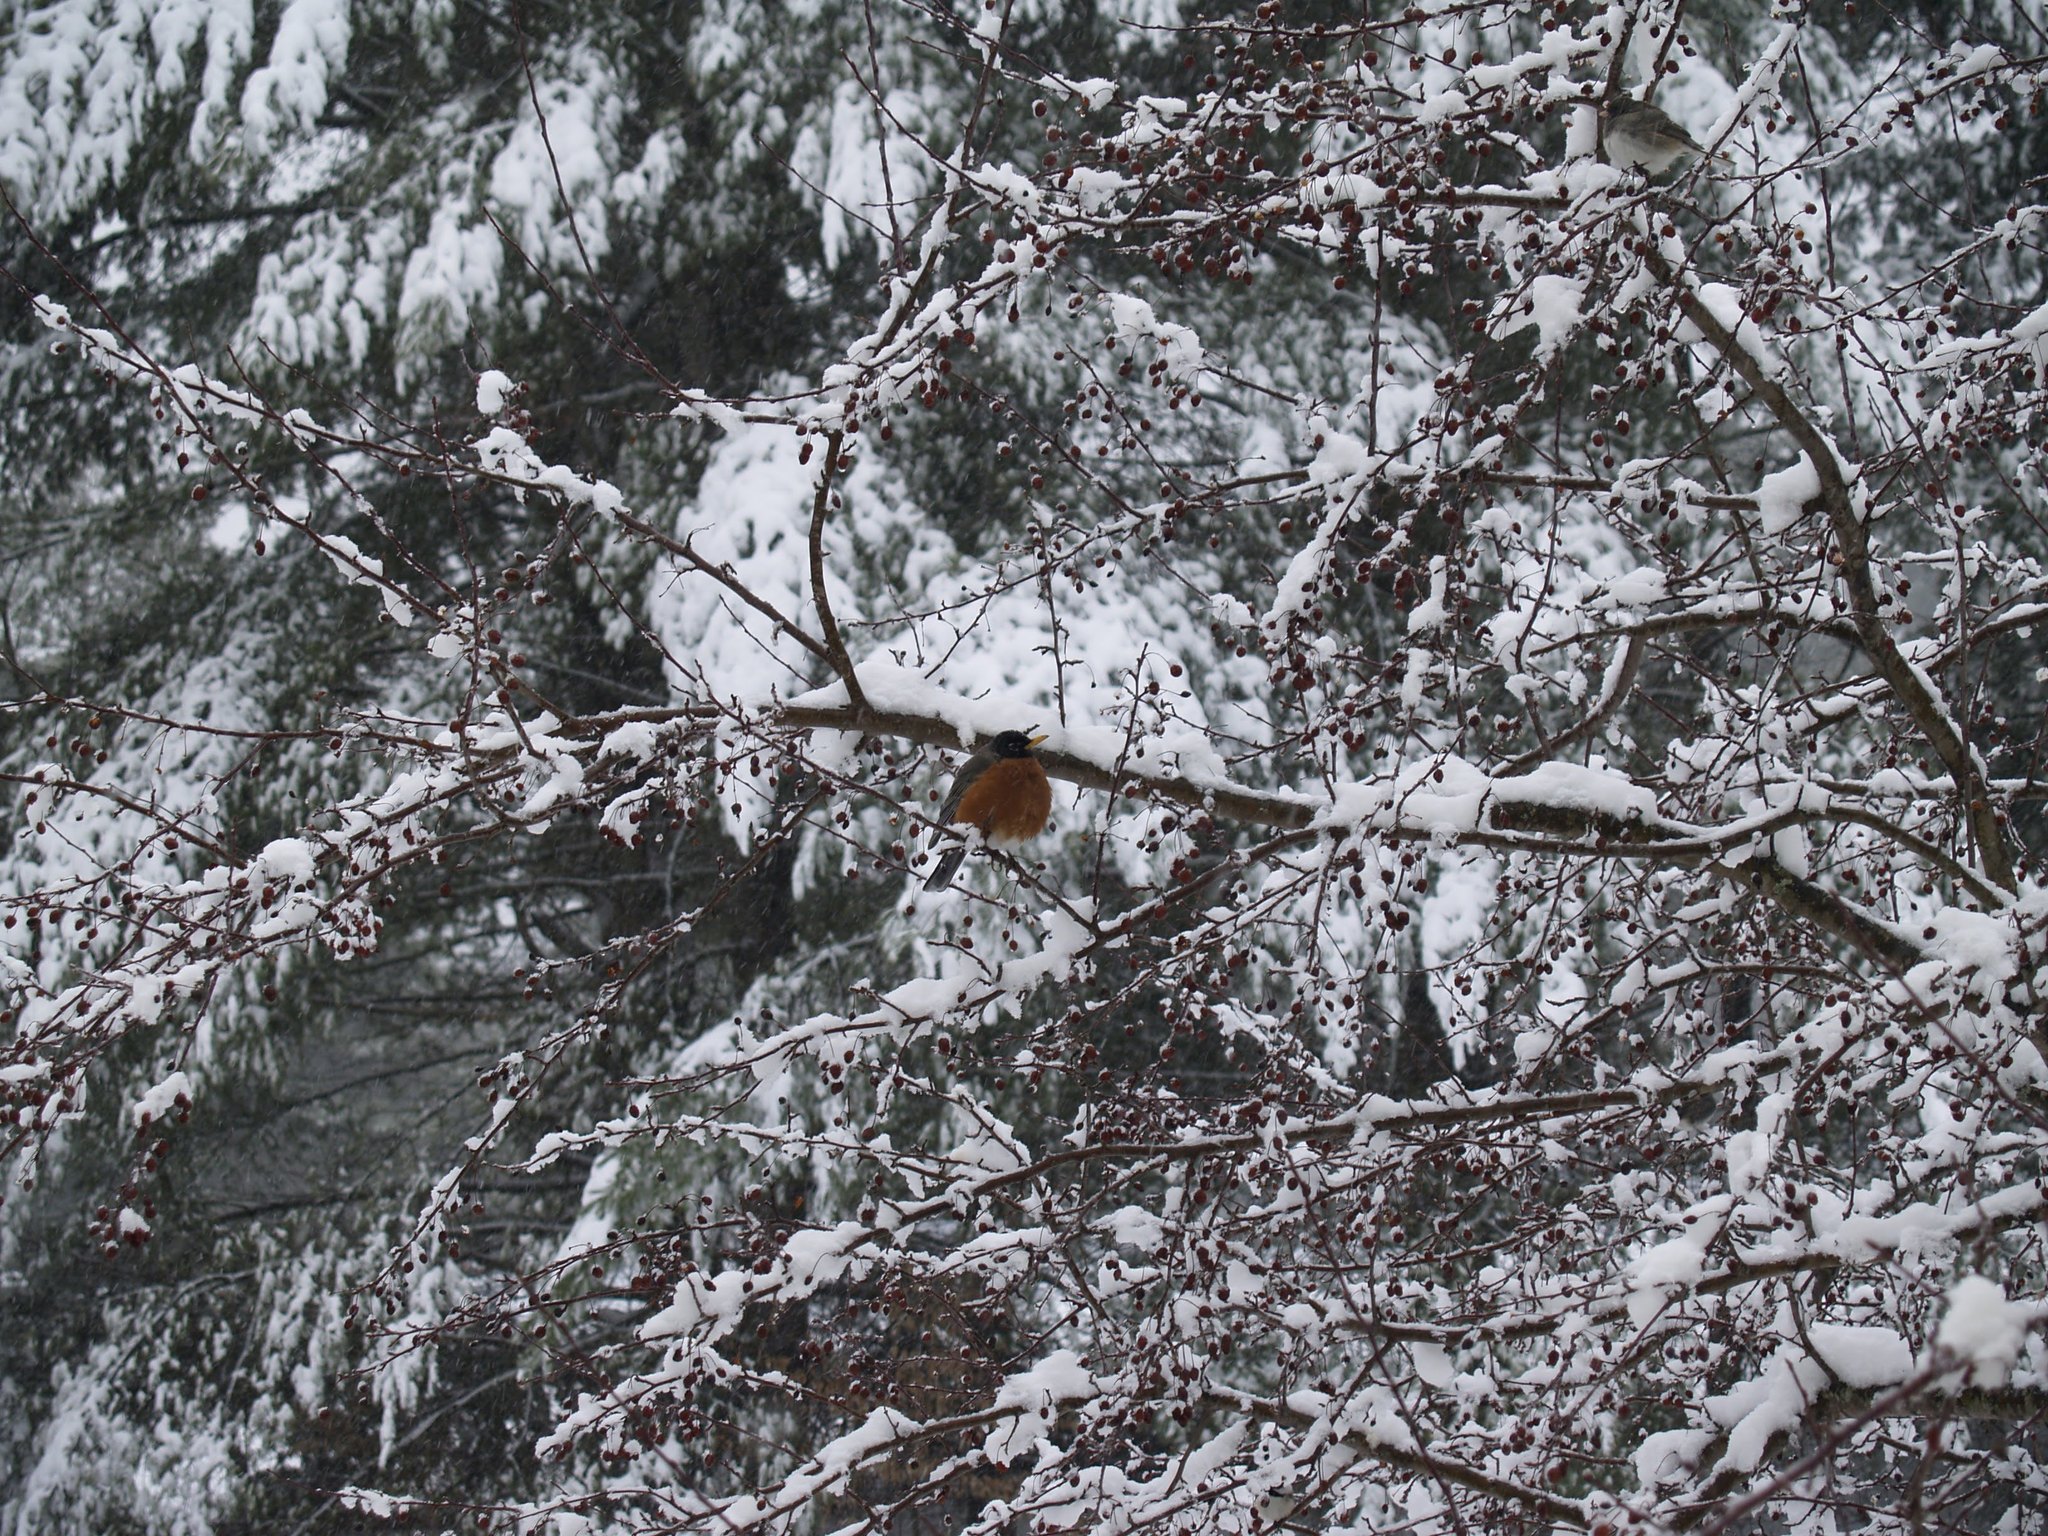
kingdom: Animalia
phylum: Chordata
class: Aves
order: Passeriformes
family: Turdidae
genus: Turdus
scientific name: Turdus migratorius
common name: American robin
